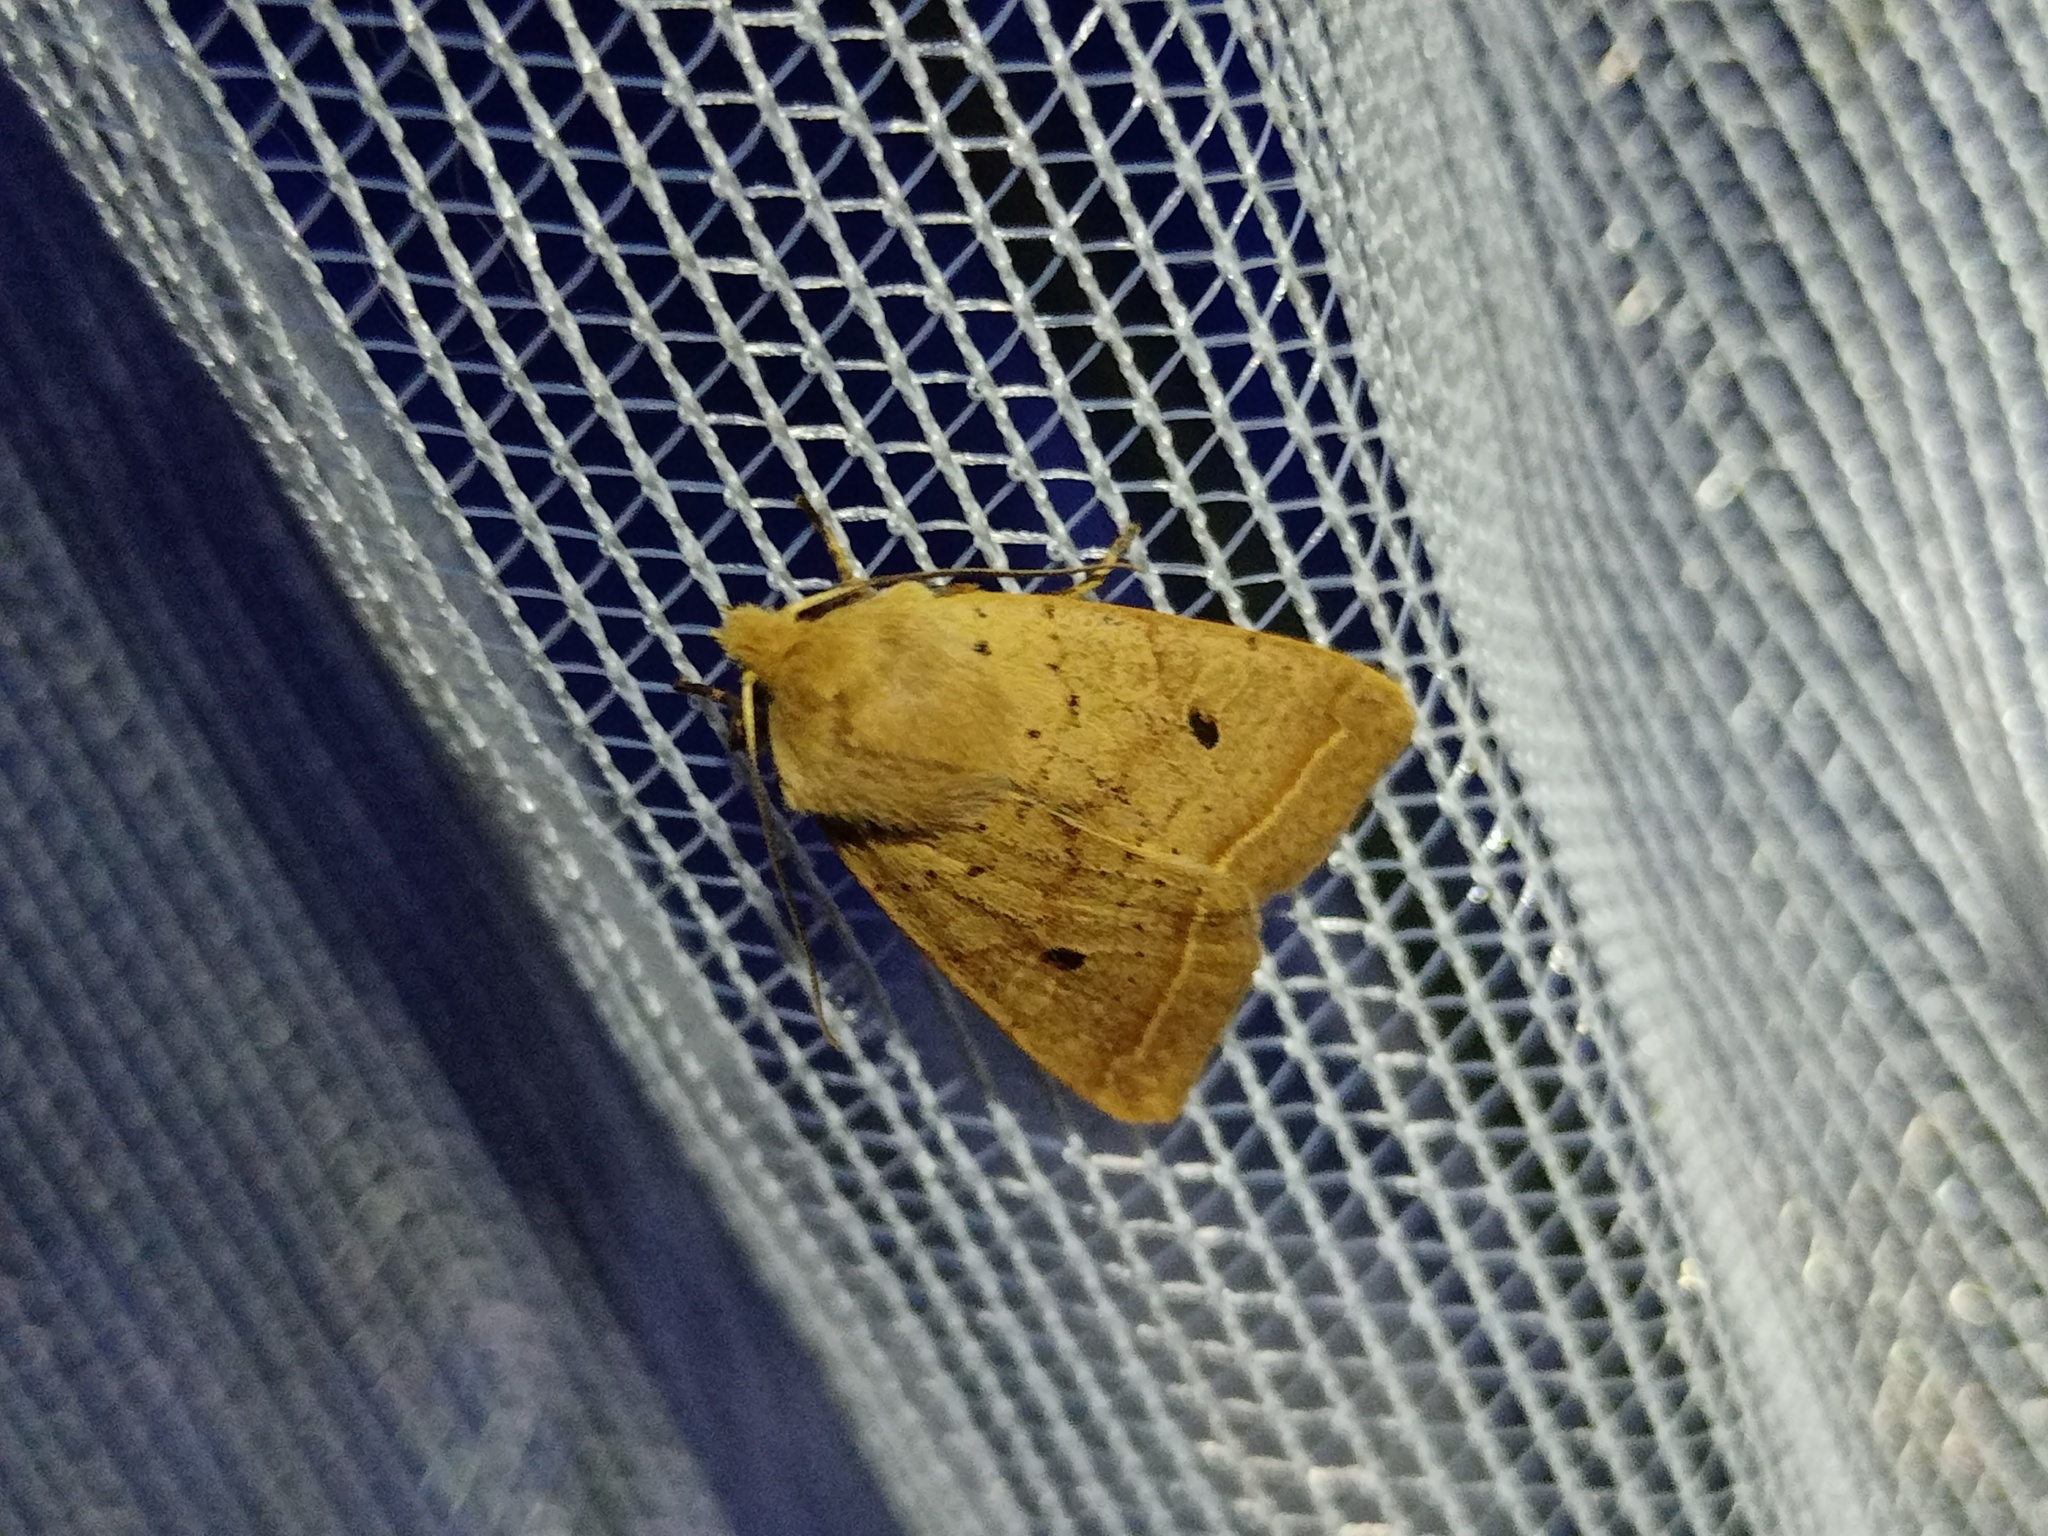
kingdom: Animalia
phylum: Arthropoda
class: Insecta
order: Lepidoptera
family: Noctuidae
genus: Agrochola
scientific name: Agrochola macilenta
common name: Yellow-line quaker
